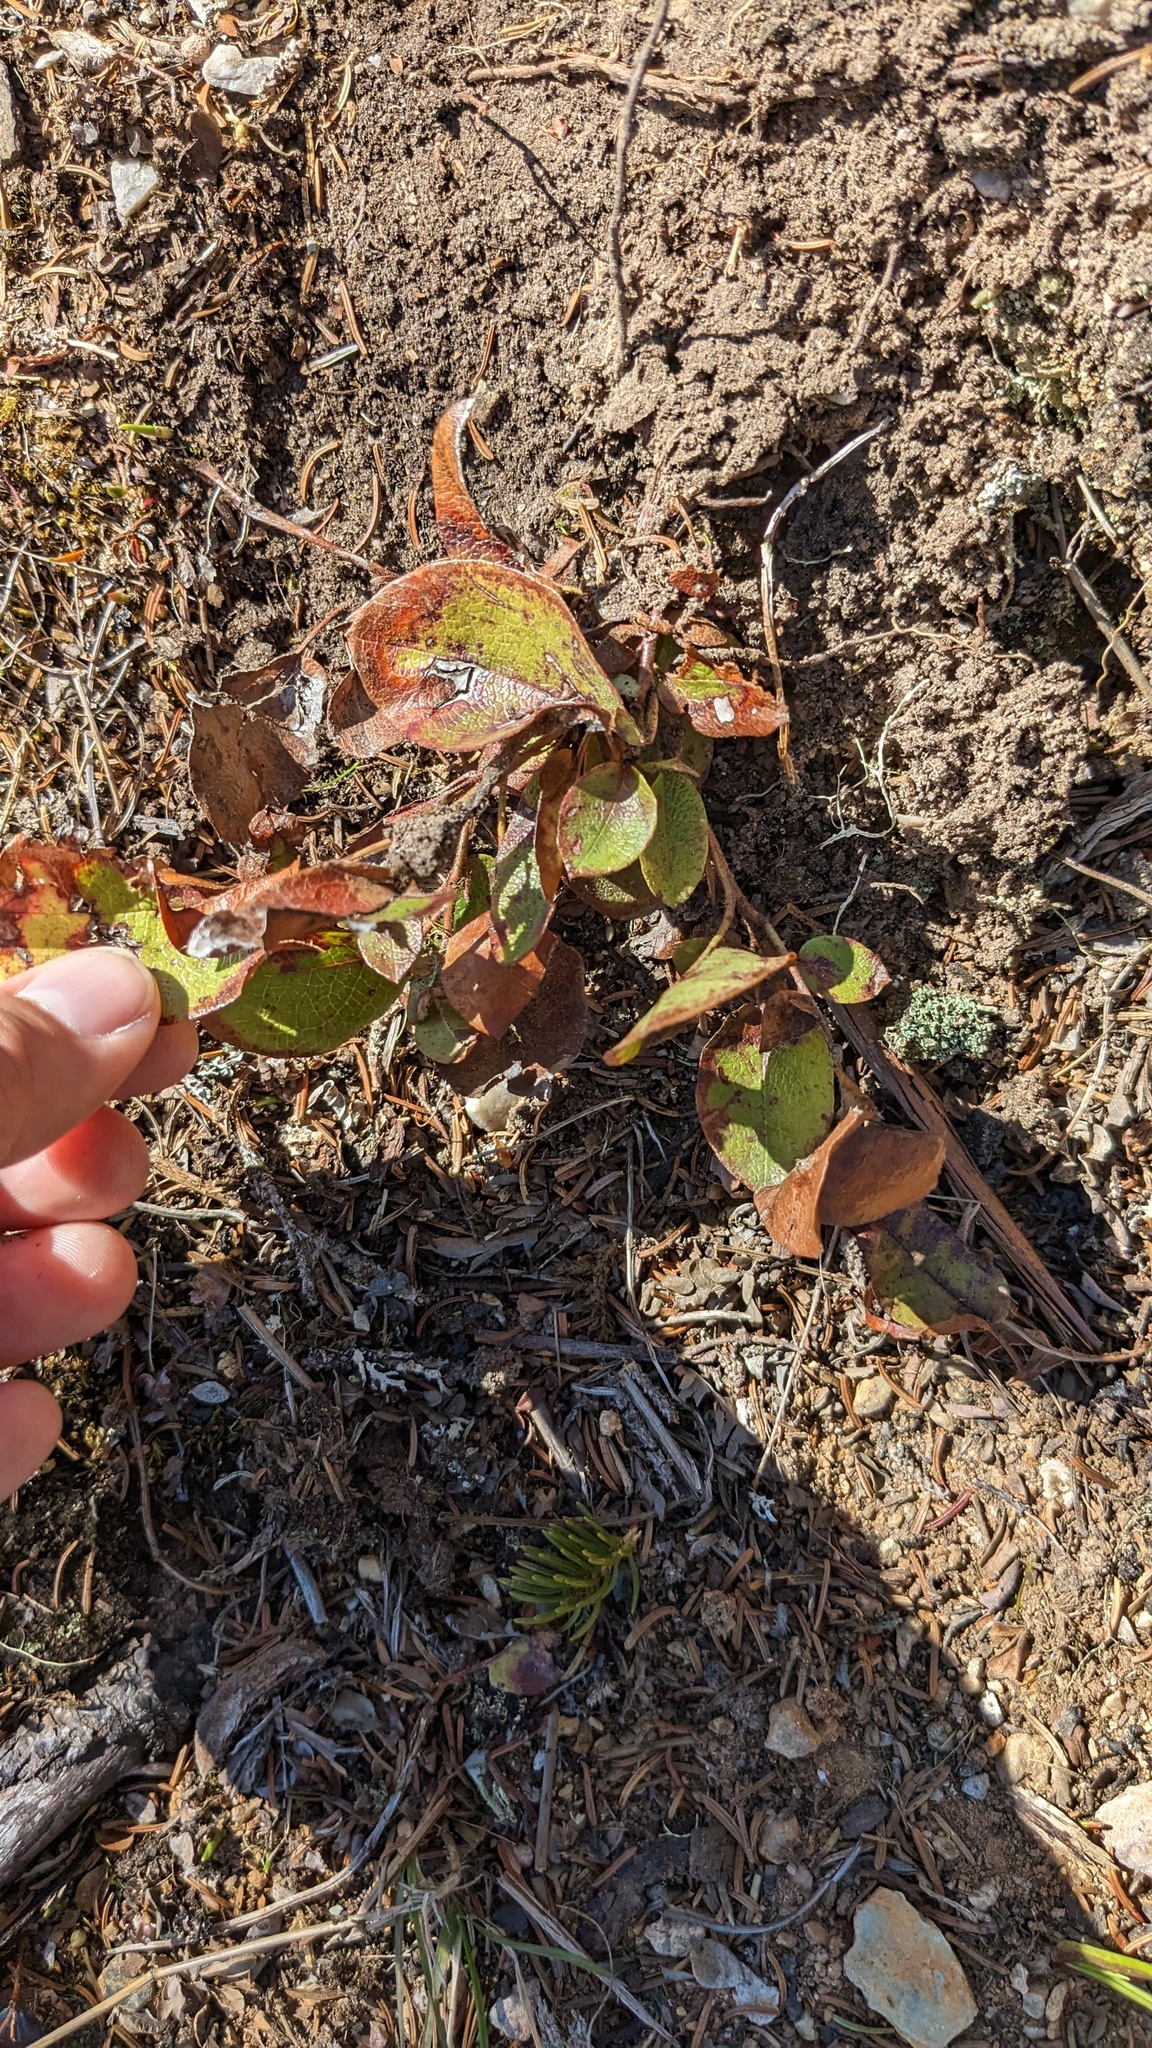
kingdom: Plantae
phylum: Tracheophyta
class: Magnoliopsida
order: Ericales
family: Ericaceae
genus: Epigaea
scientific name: Epigaea repens
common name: Gravelroot
